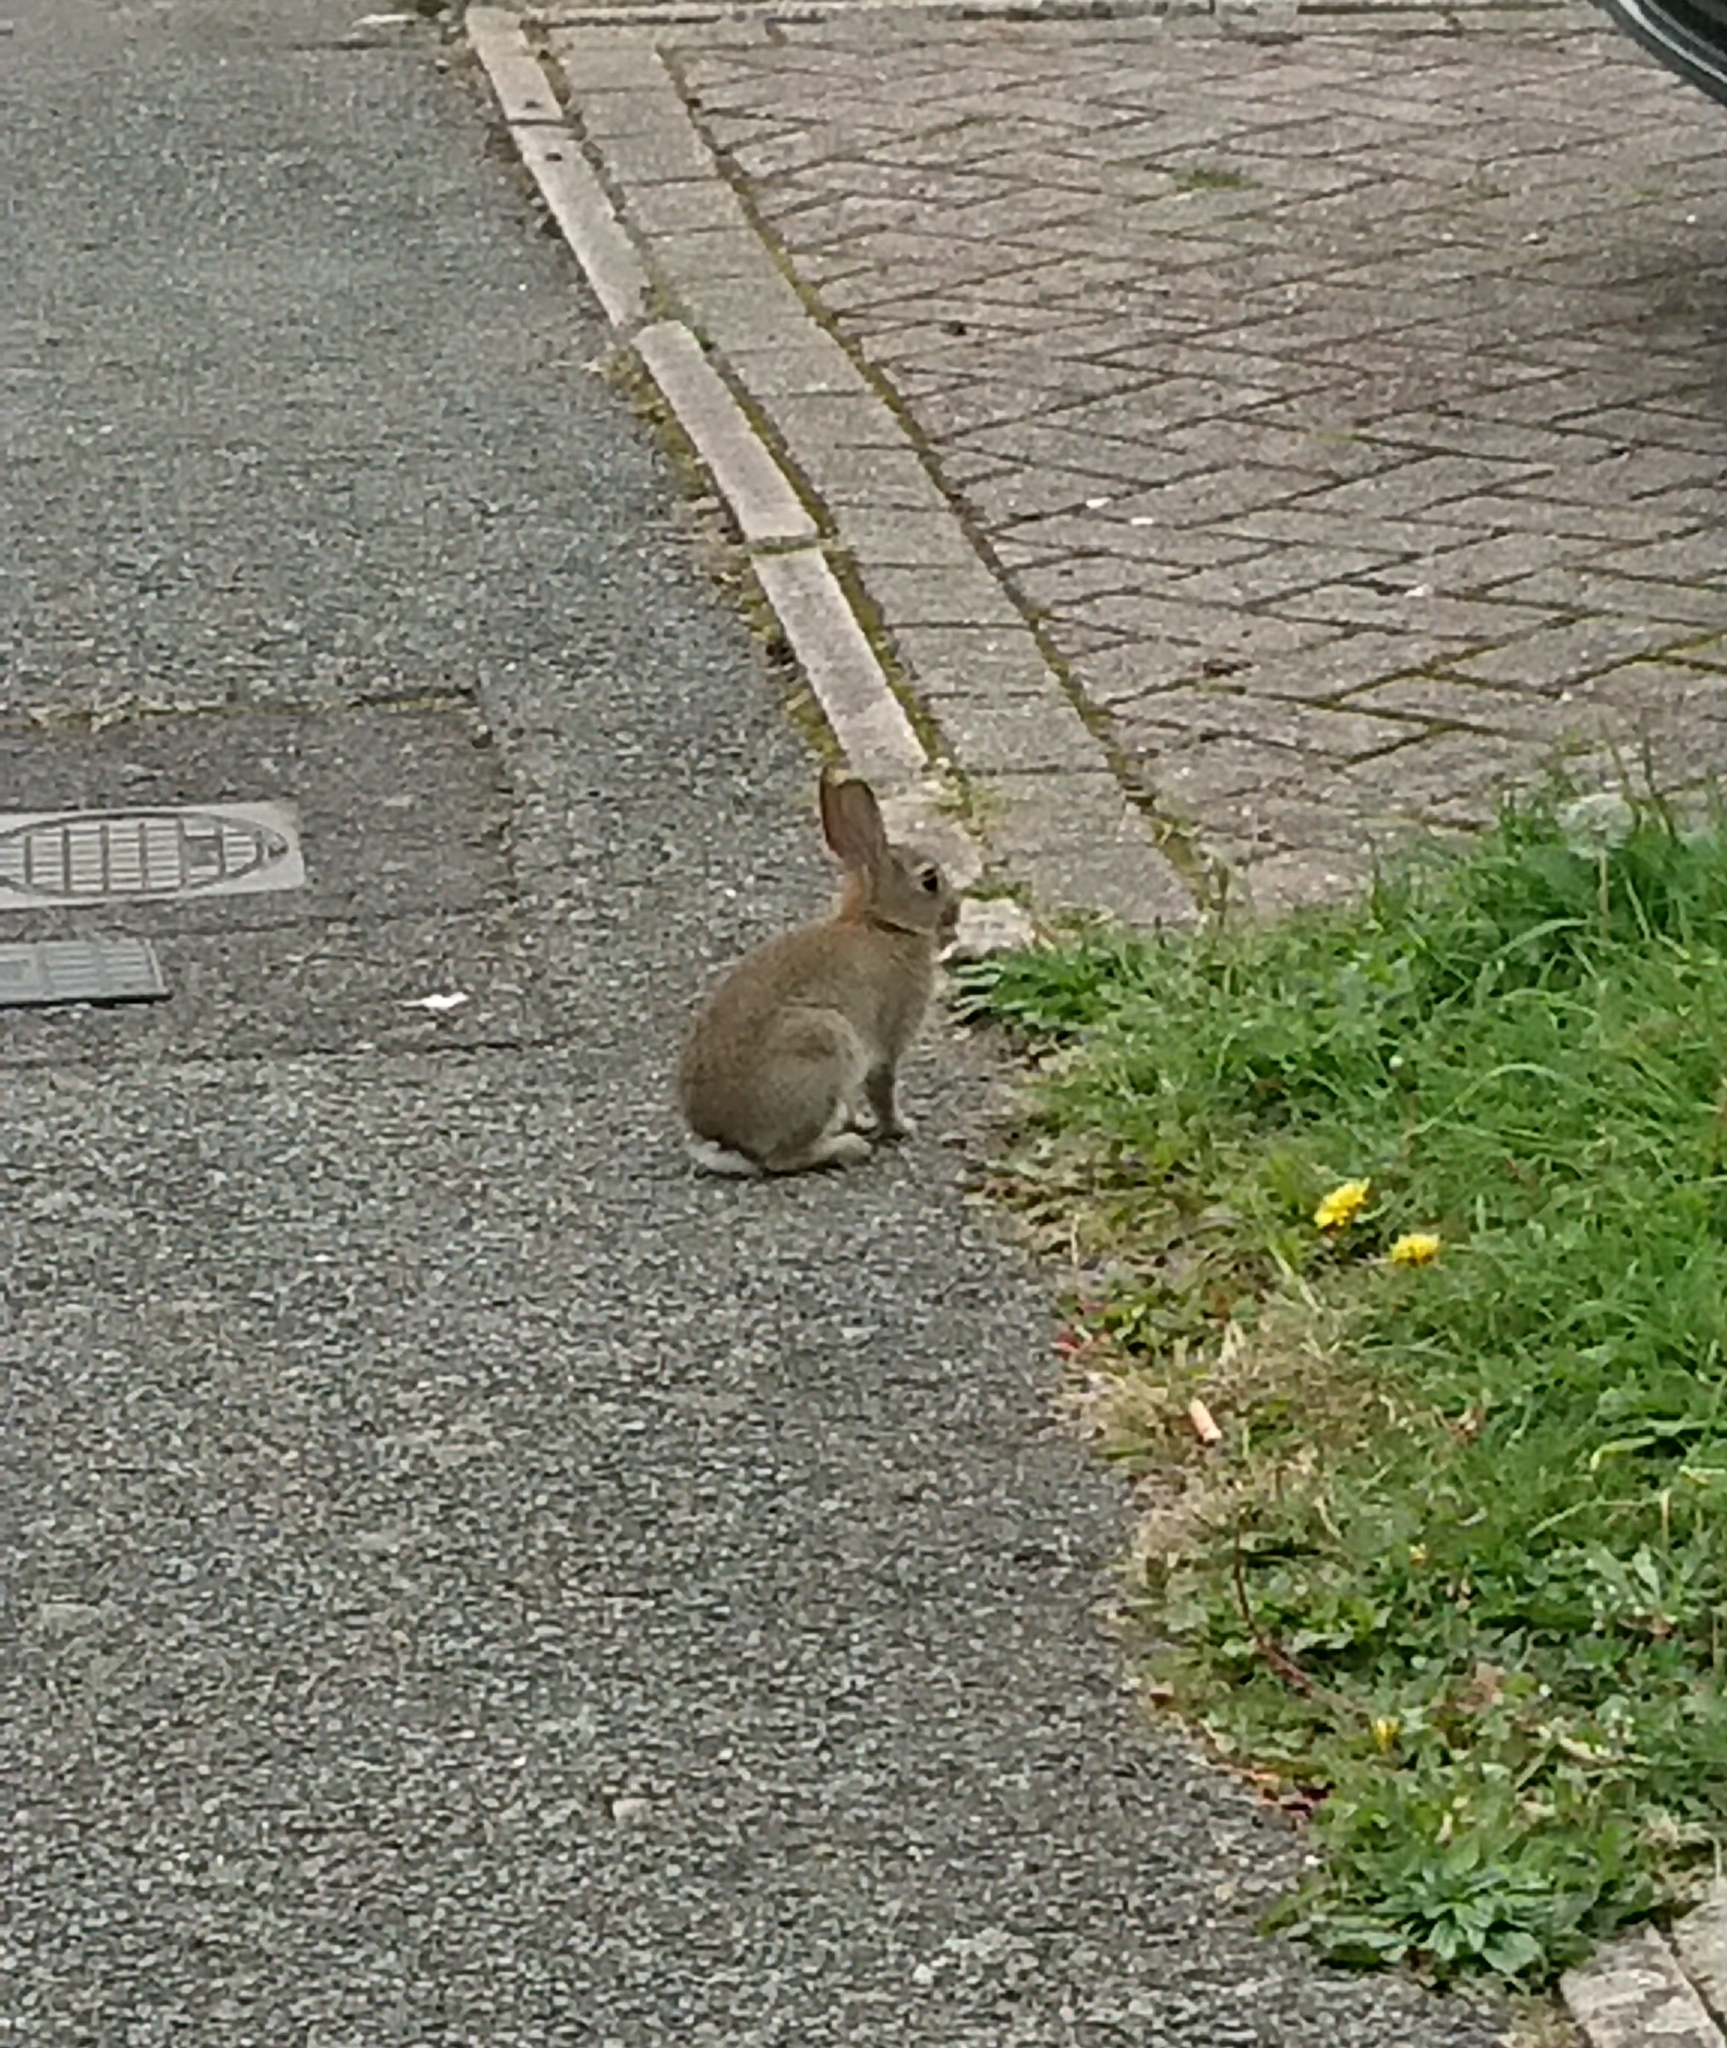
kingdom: Animalia
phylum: Chordata
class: Mammalia
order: Lagomorpha
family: Leporidae
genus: Oryctolagus
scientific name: Oryctolagus cuniculus
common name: European rabbit
